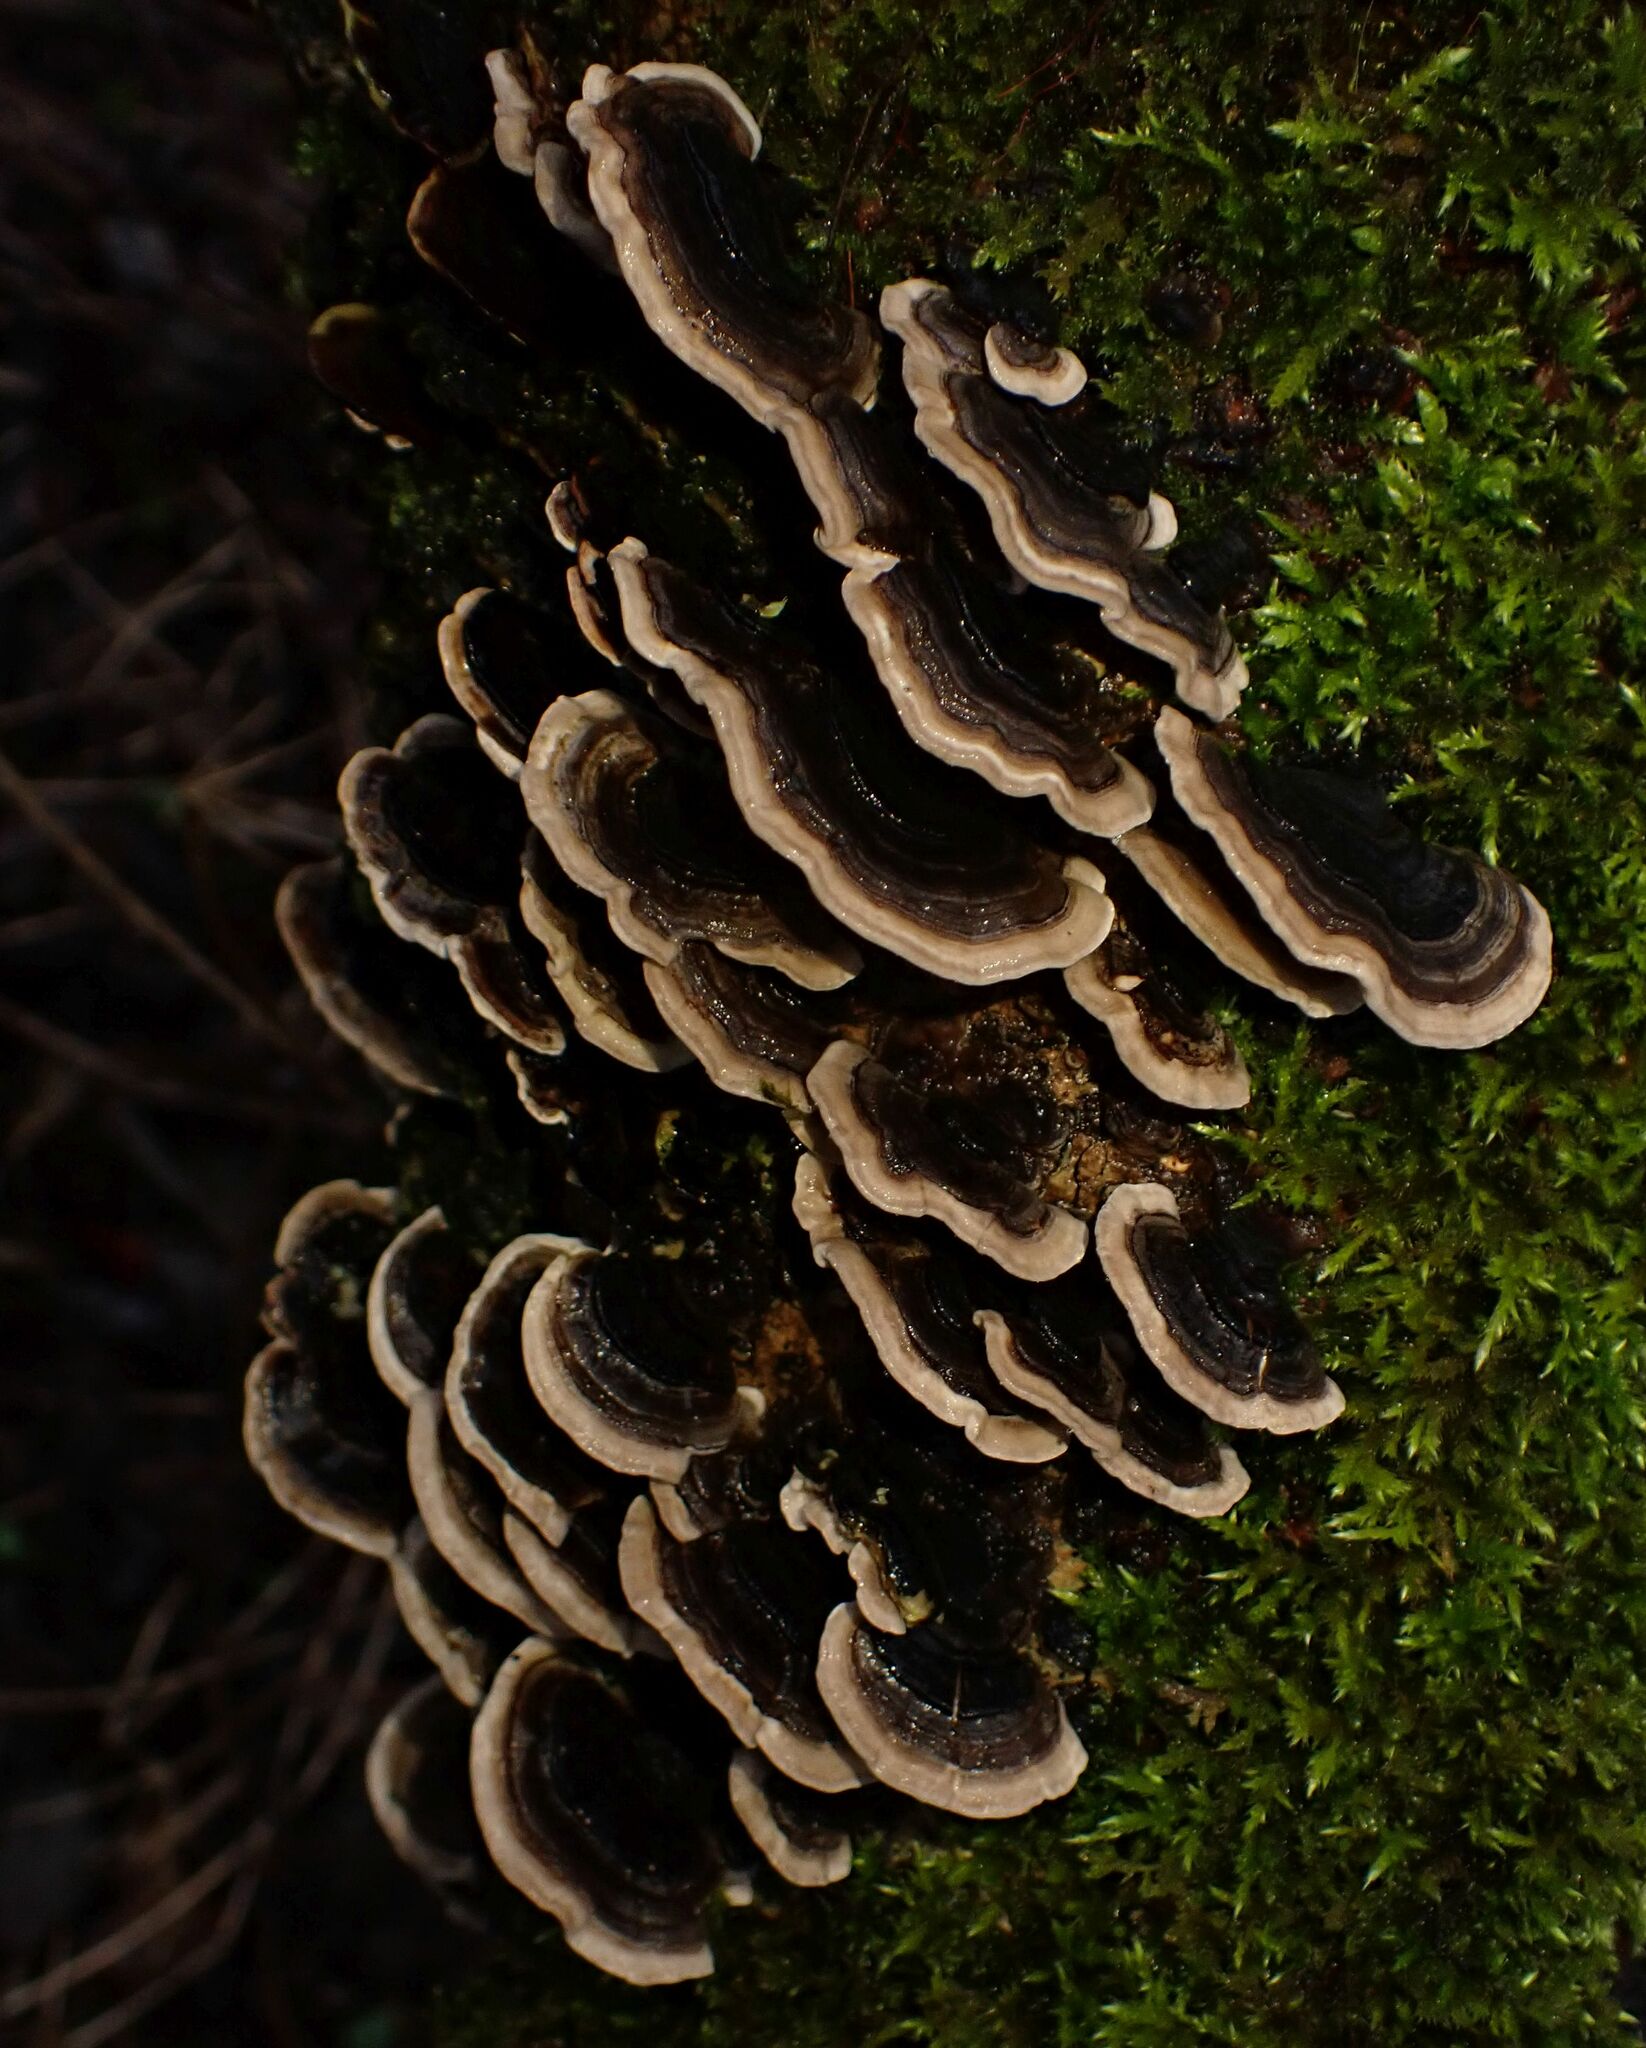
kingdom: Fungi
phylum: Basidiomycota
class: Agaricomycetes
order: Polyporales
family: Polyporaceae
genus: Trametes
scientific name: Trametes versicolor
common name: Turkeytail
